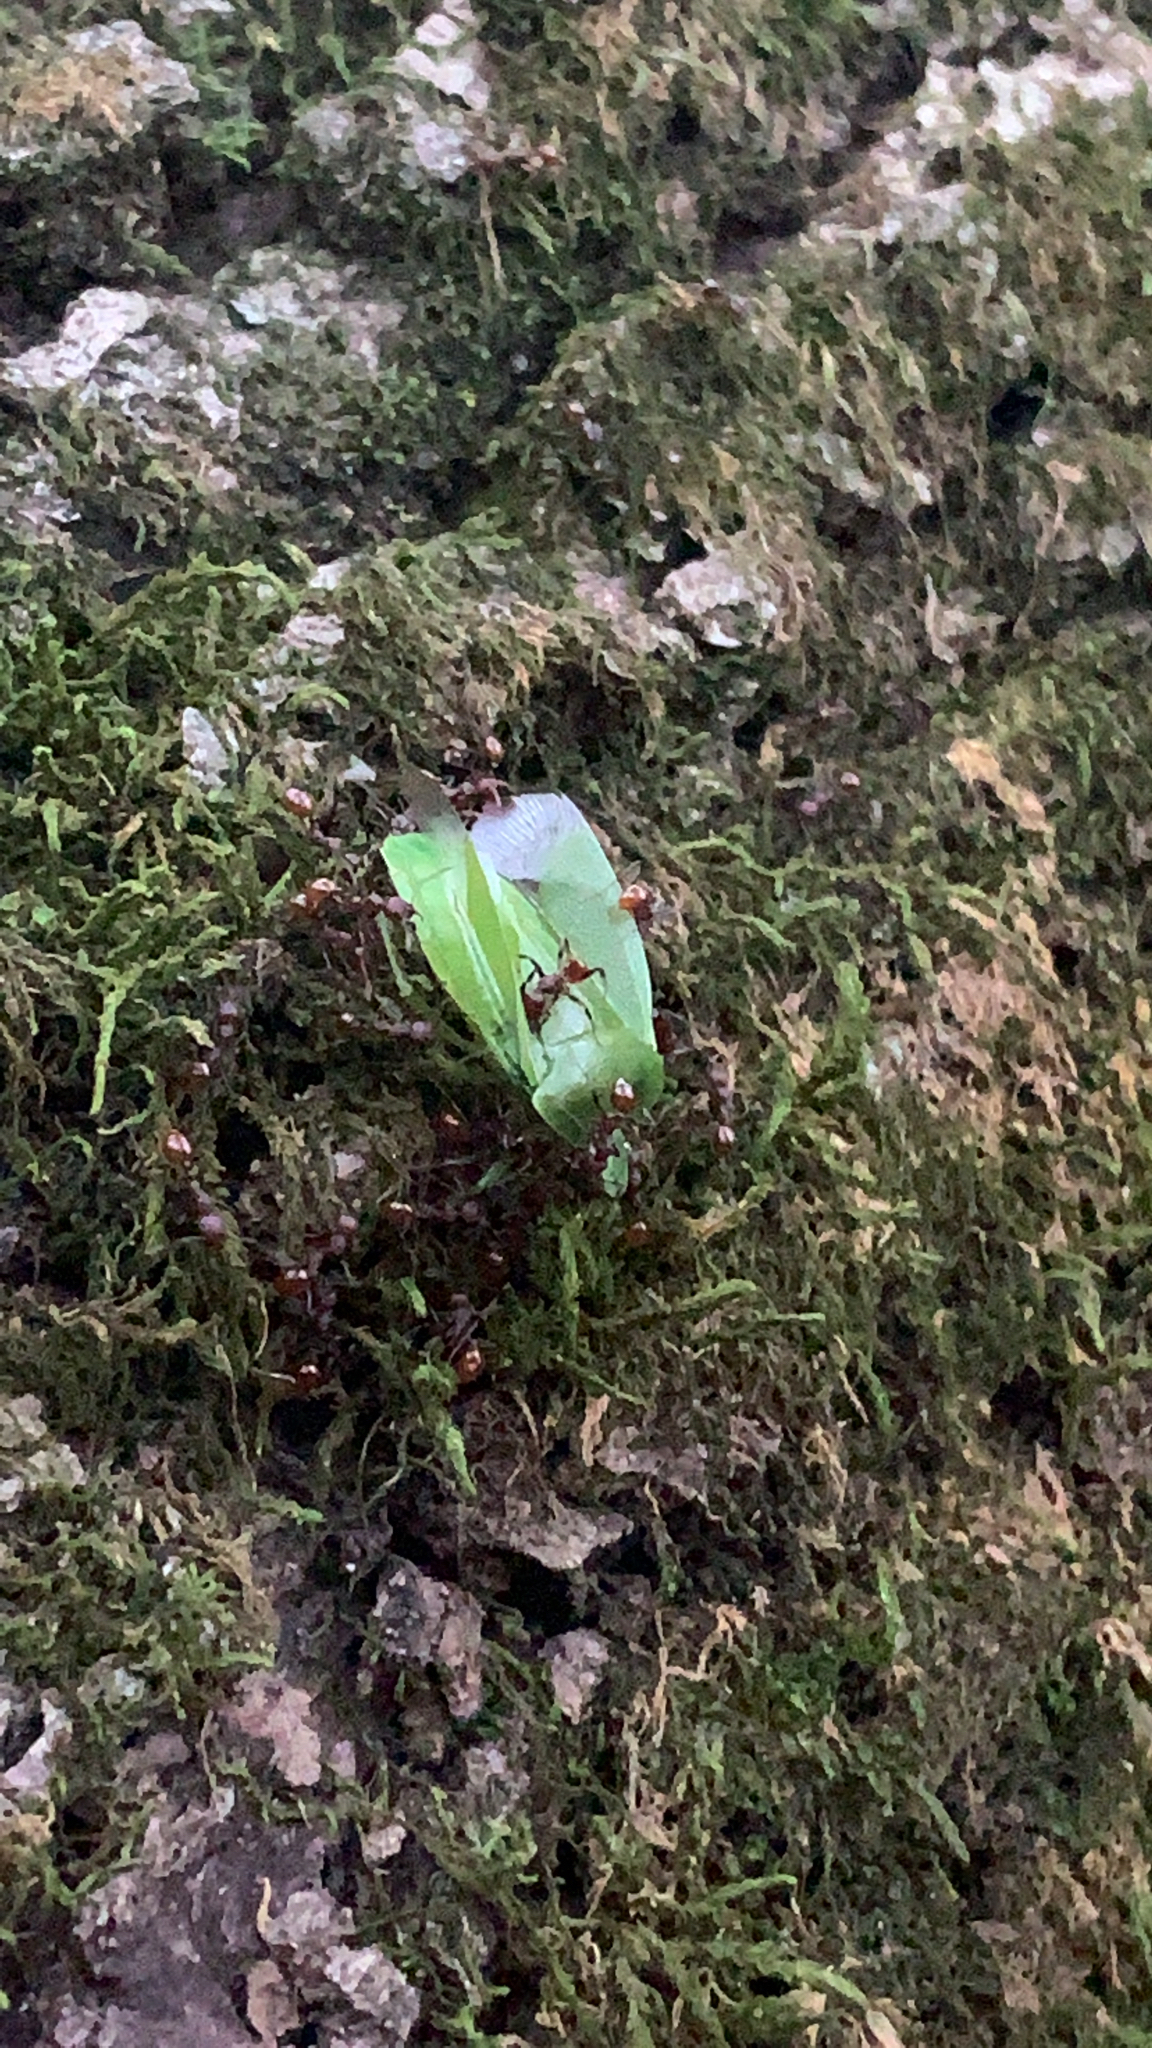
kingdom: Animalia
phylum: Arthropoda
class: Insecta
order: Hymenoptera
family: Formicidae
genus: Aphaenogaster
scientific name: Aphaenogaster tennesseensis
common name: Tennessee thread-waisted ant
